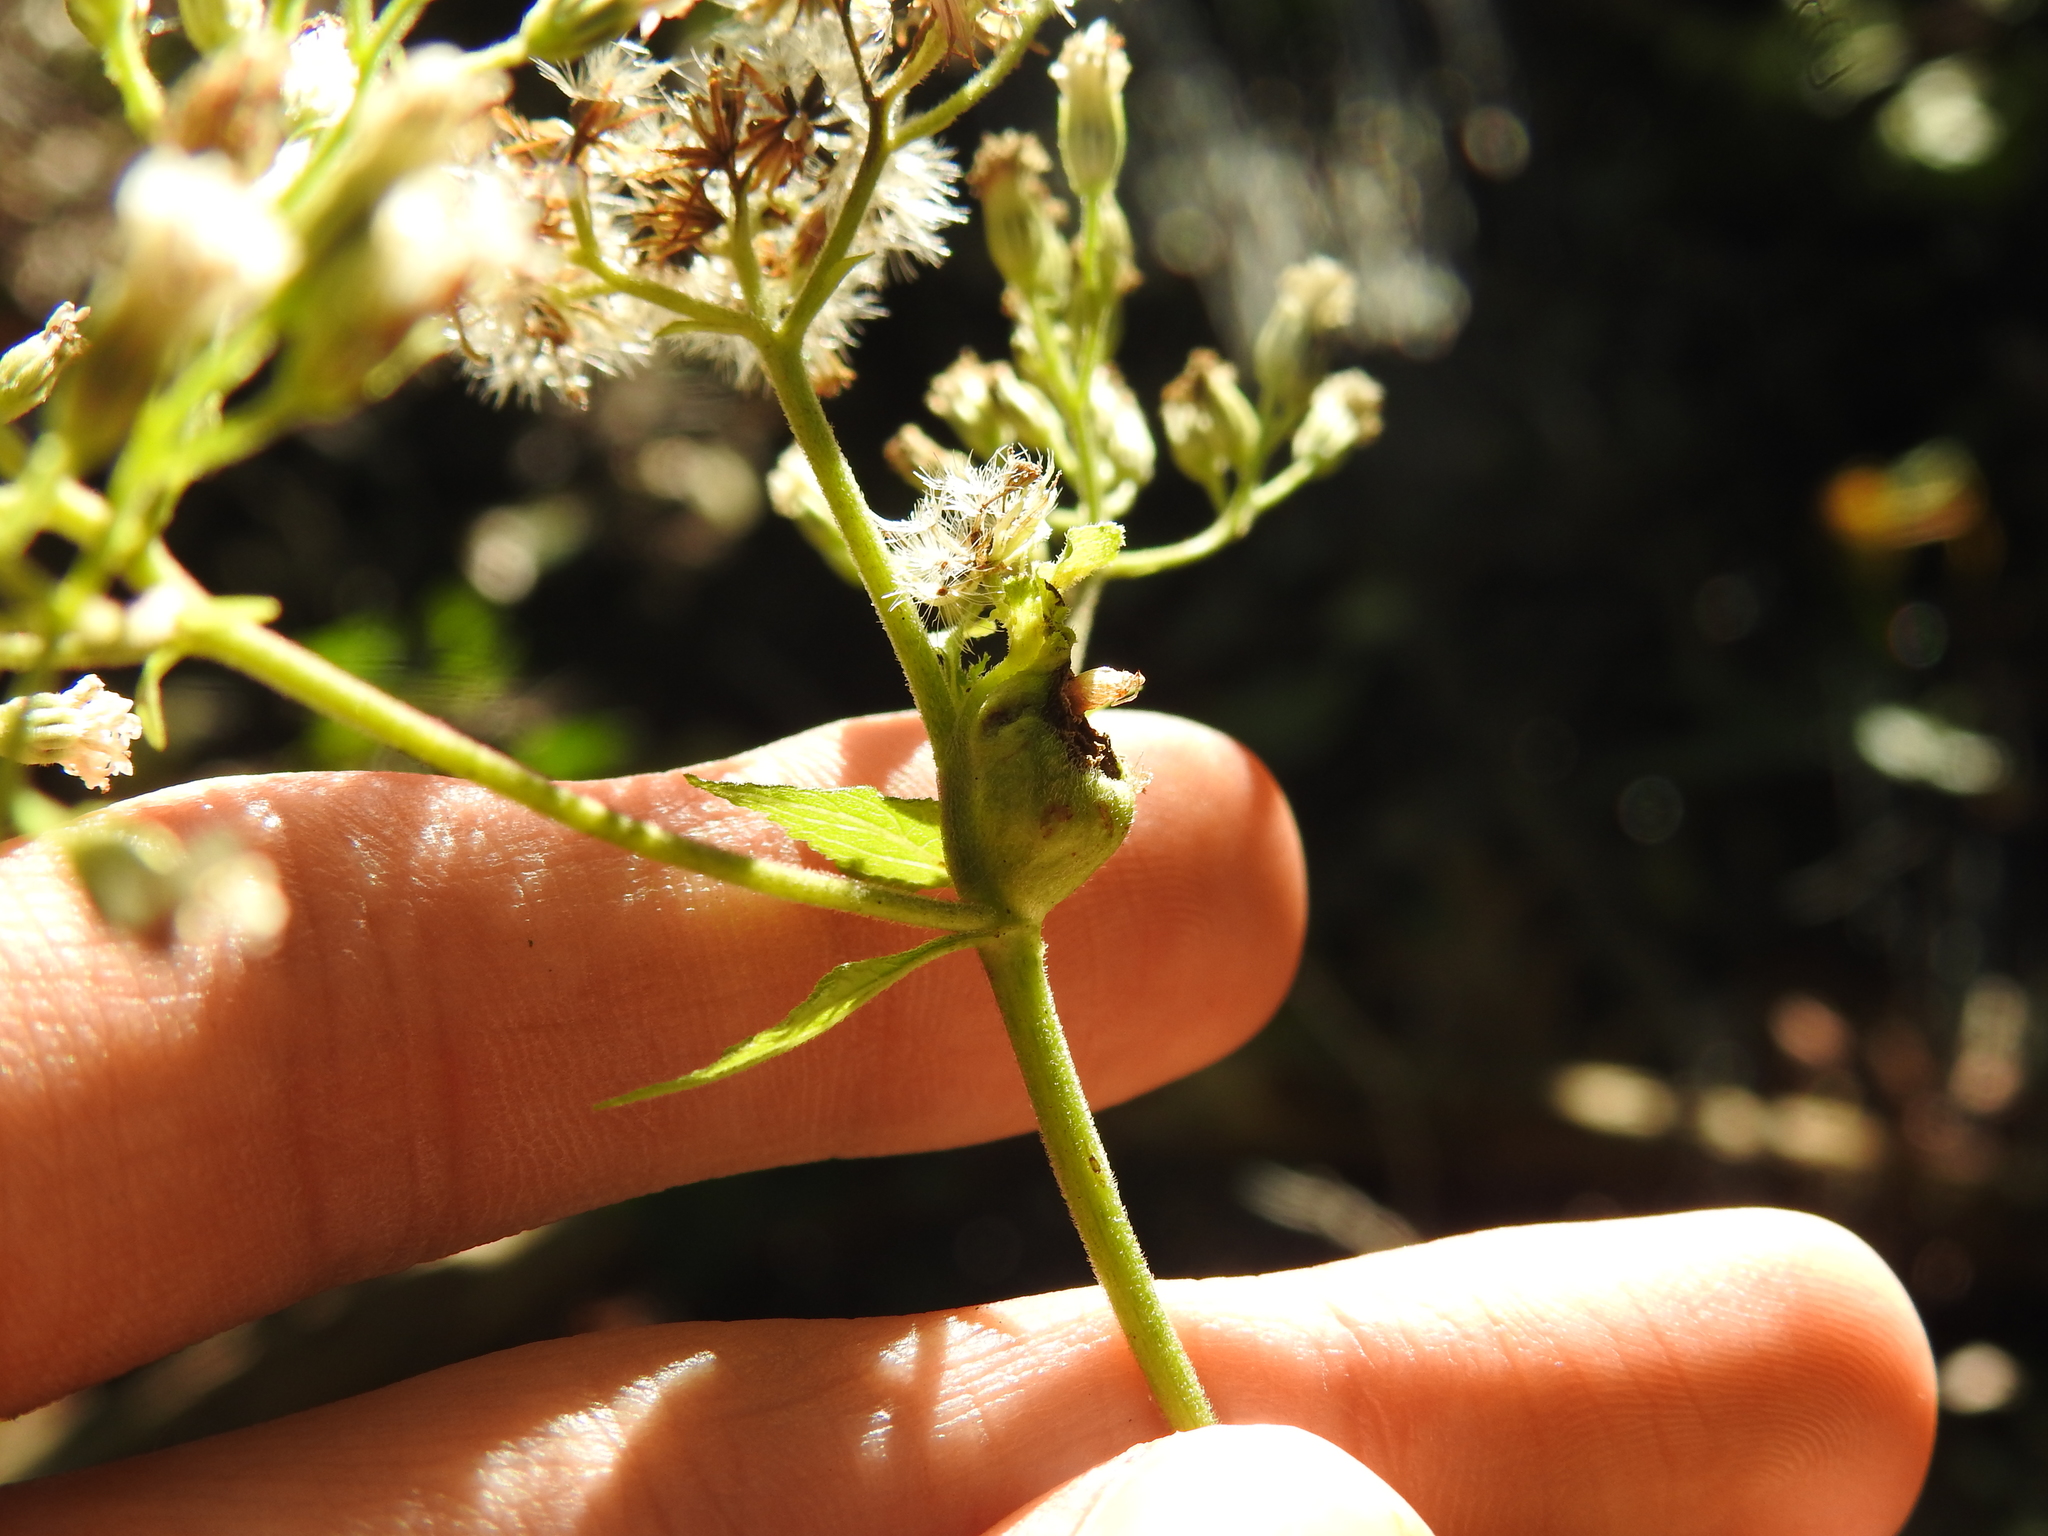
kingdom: Animalia
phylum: Arthropoda
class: Insecta
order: Diptera
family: Cecidomyiidae
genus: Asphondylia
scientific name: Asphondylia eupatorii
